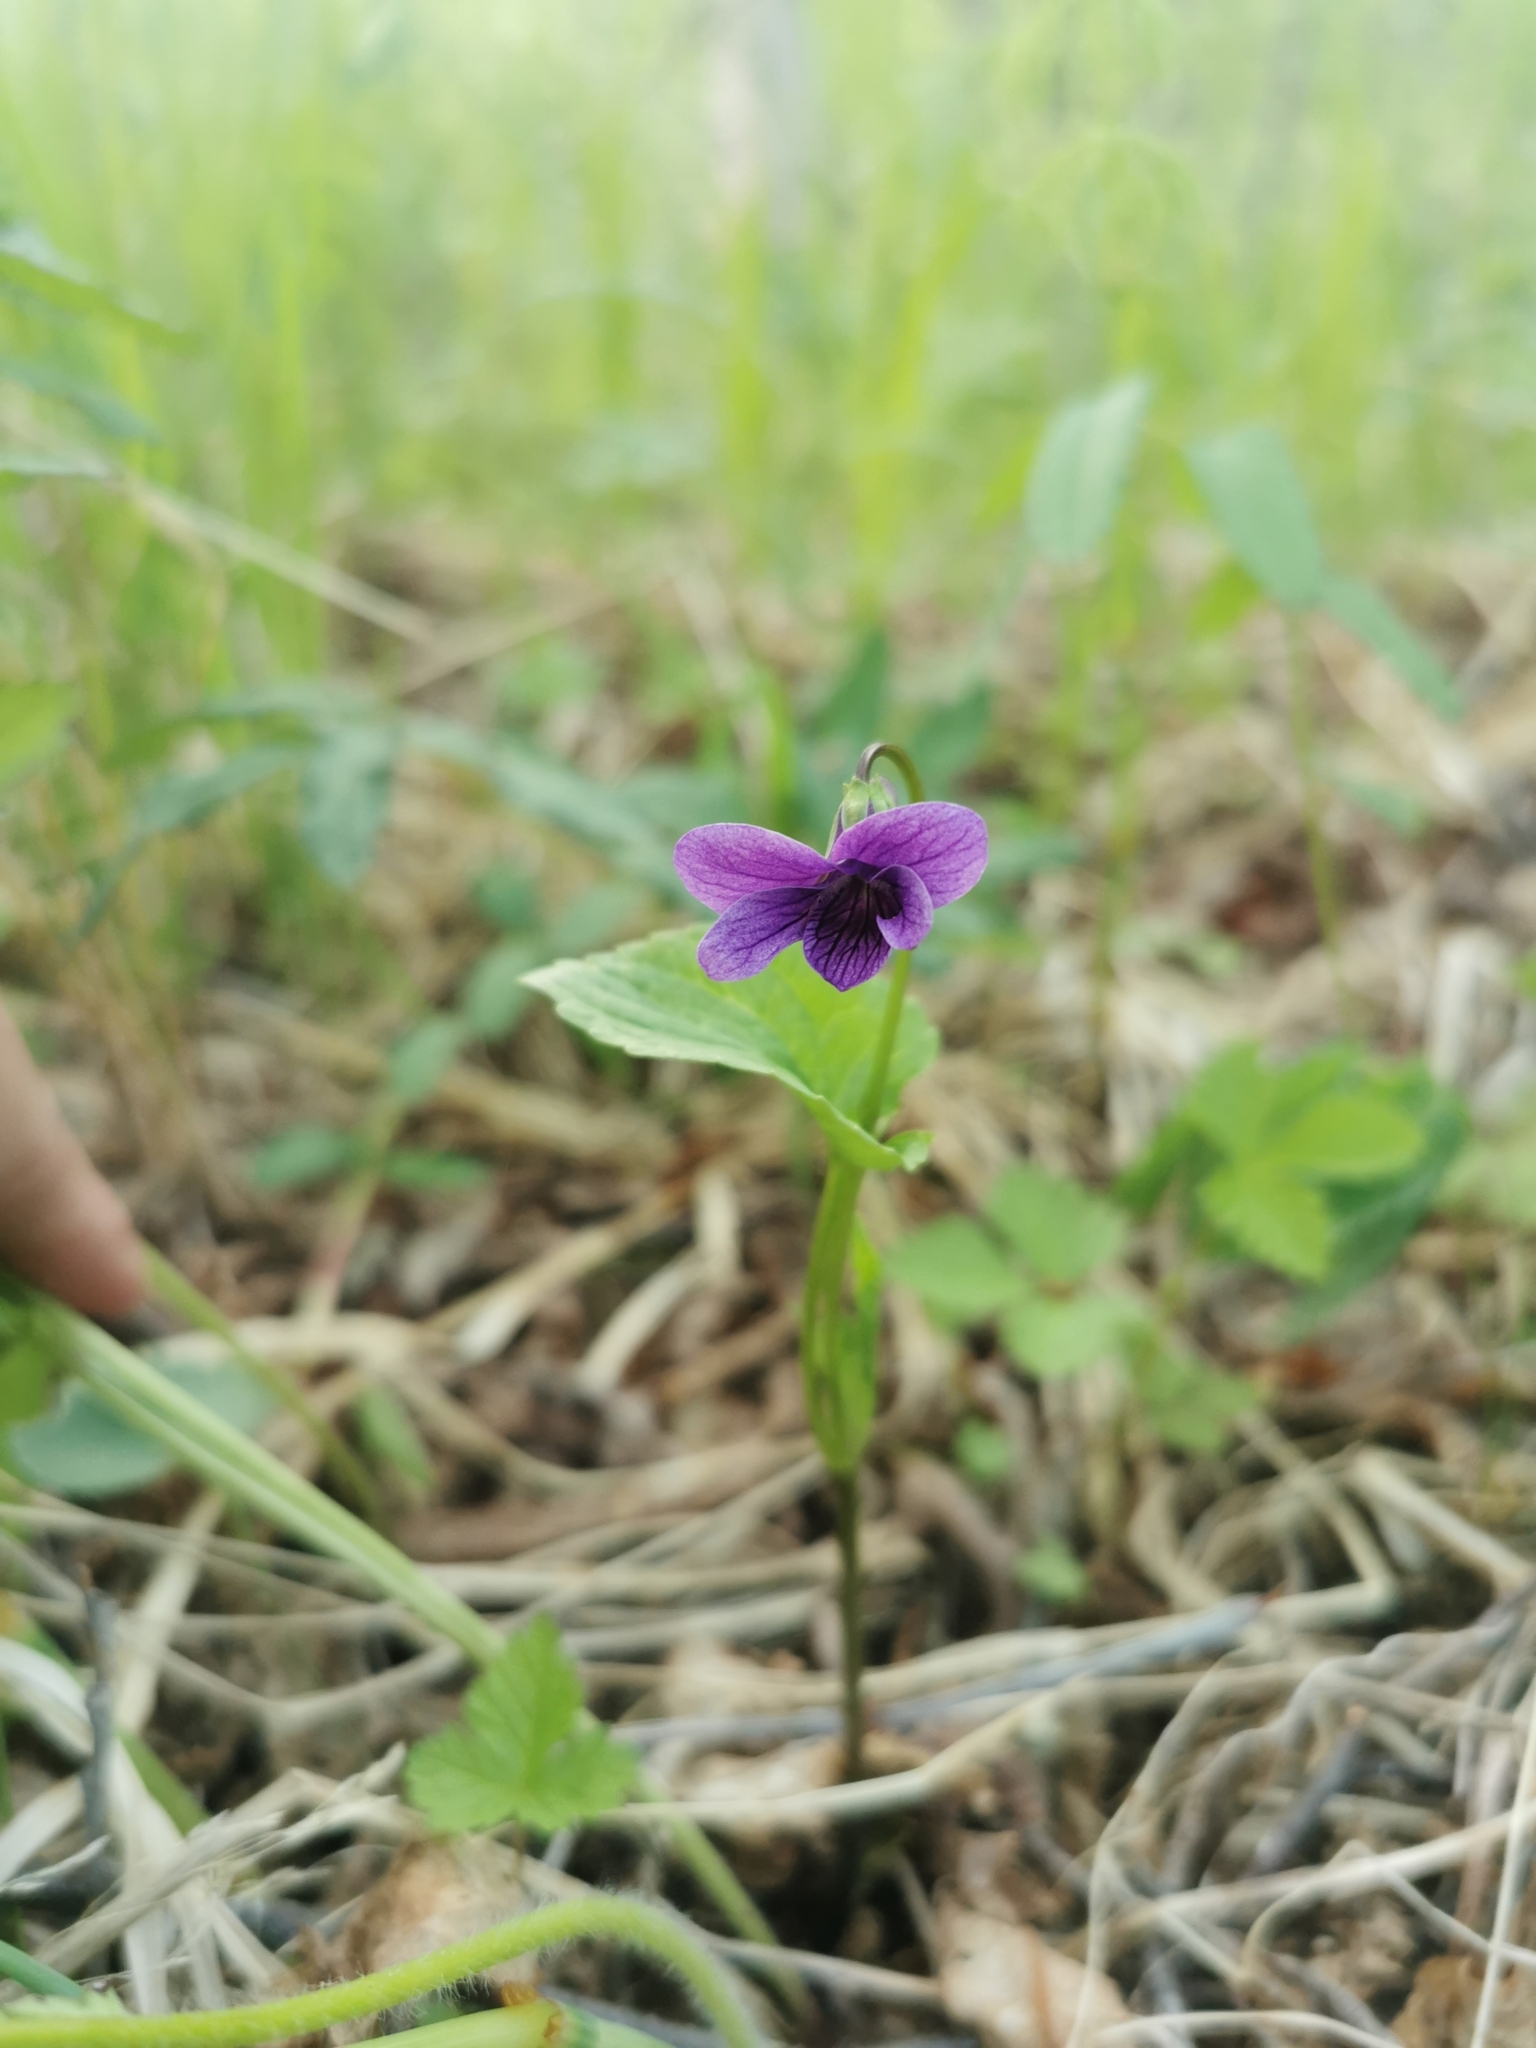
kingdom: Plantae
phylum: Tracheophyta
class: Magnoliopsida
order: Malpighiales
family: Violaceae
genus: Viola
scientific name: Viola langsdorfii
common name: Alaska violet
